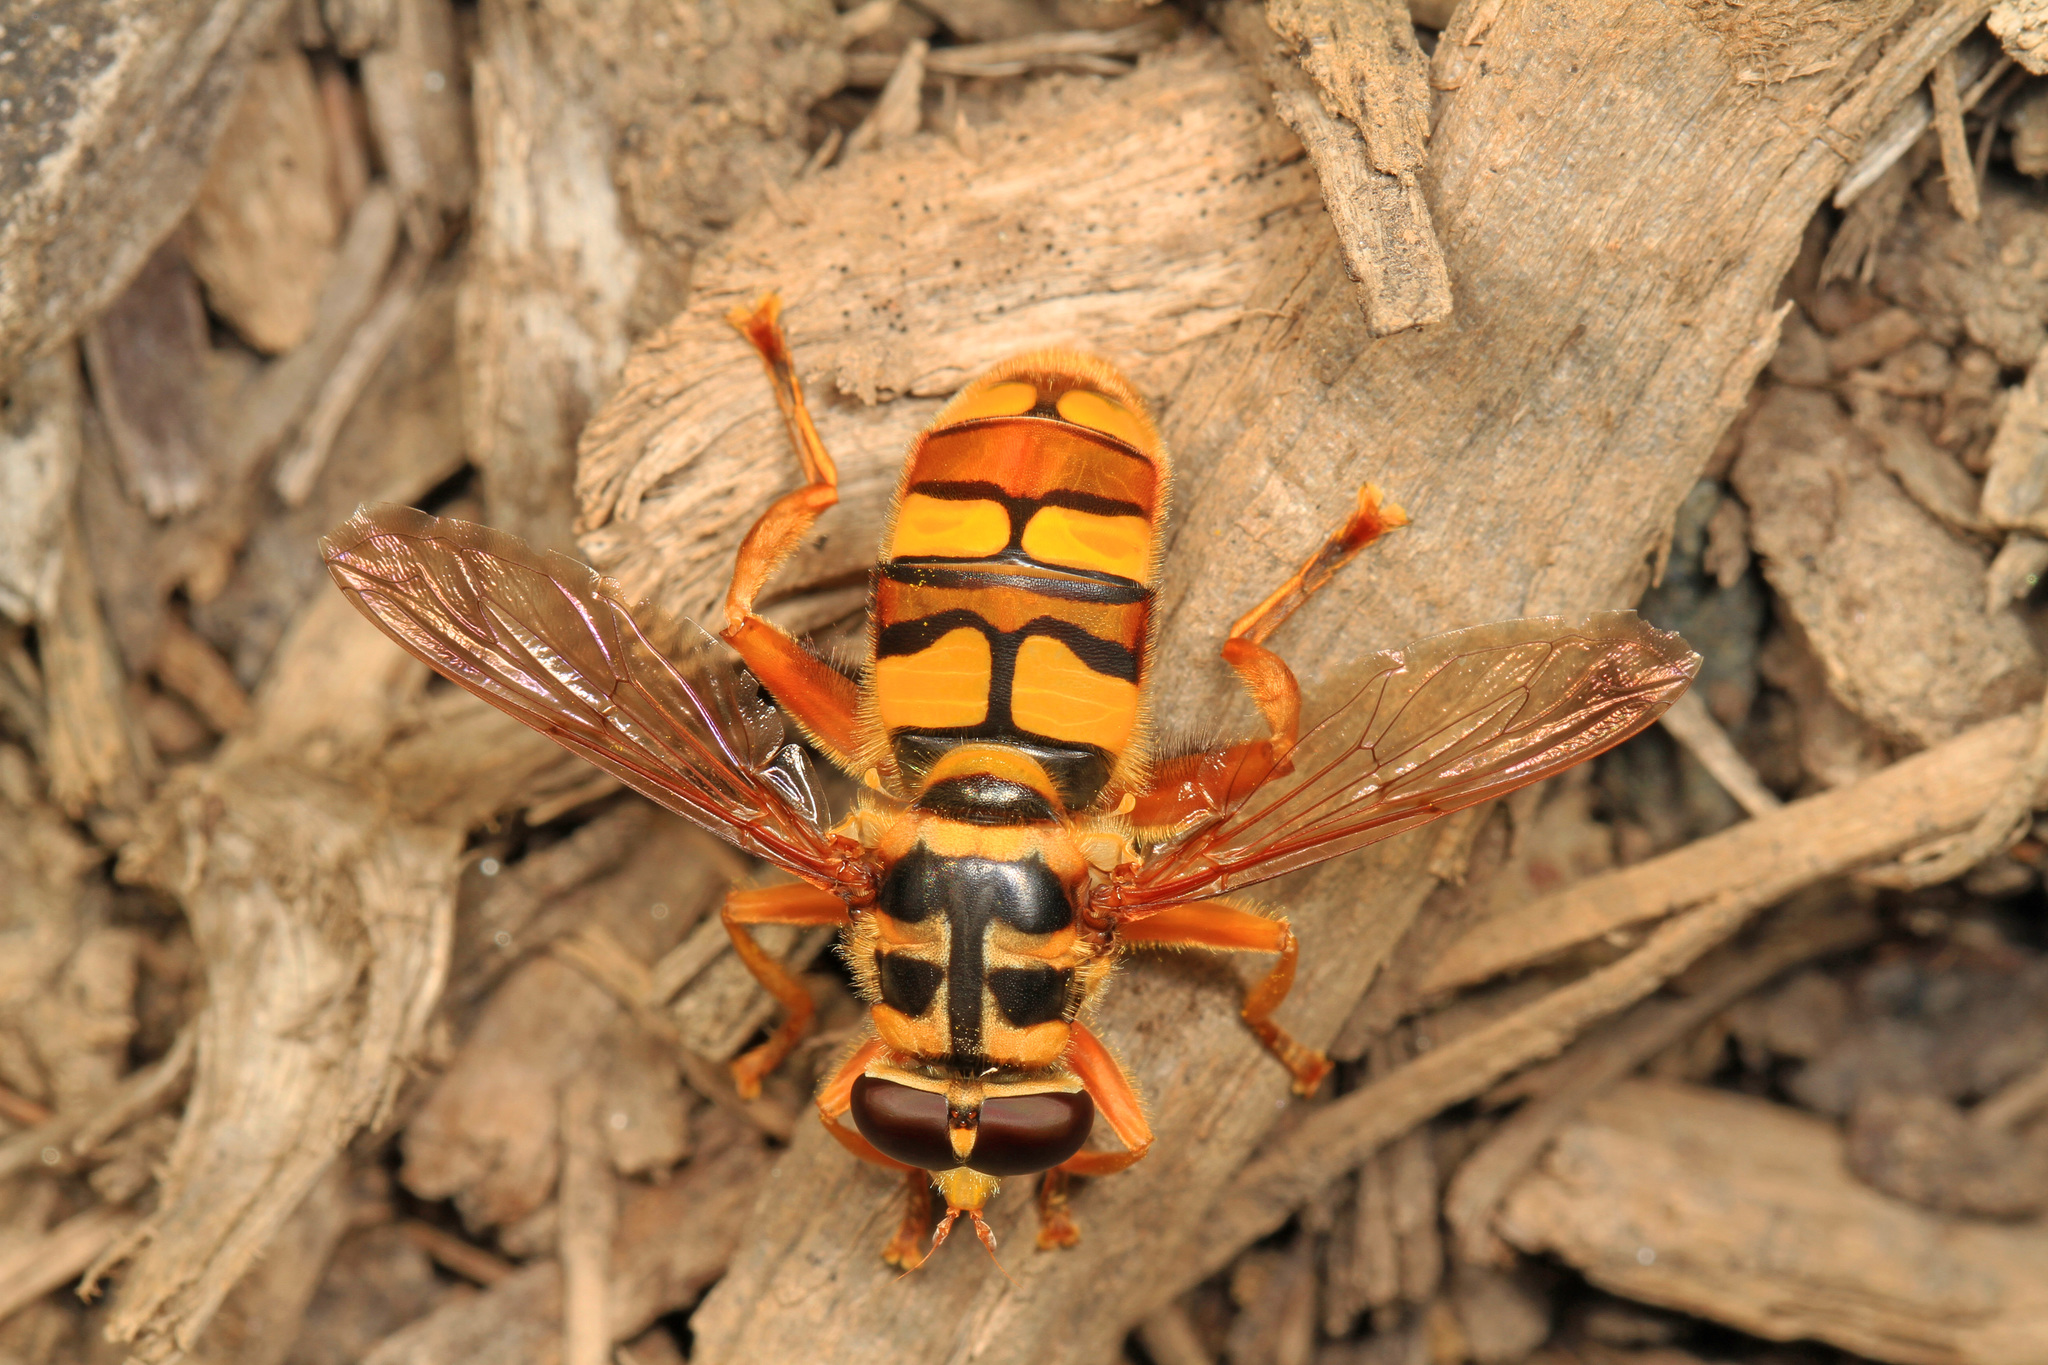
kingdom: Animalia
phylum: Arthropoda
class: Insecta
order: Diptera
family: Syrphidae
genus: Milesia
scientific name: Milesia virginiensis
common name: Virginia giant
